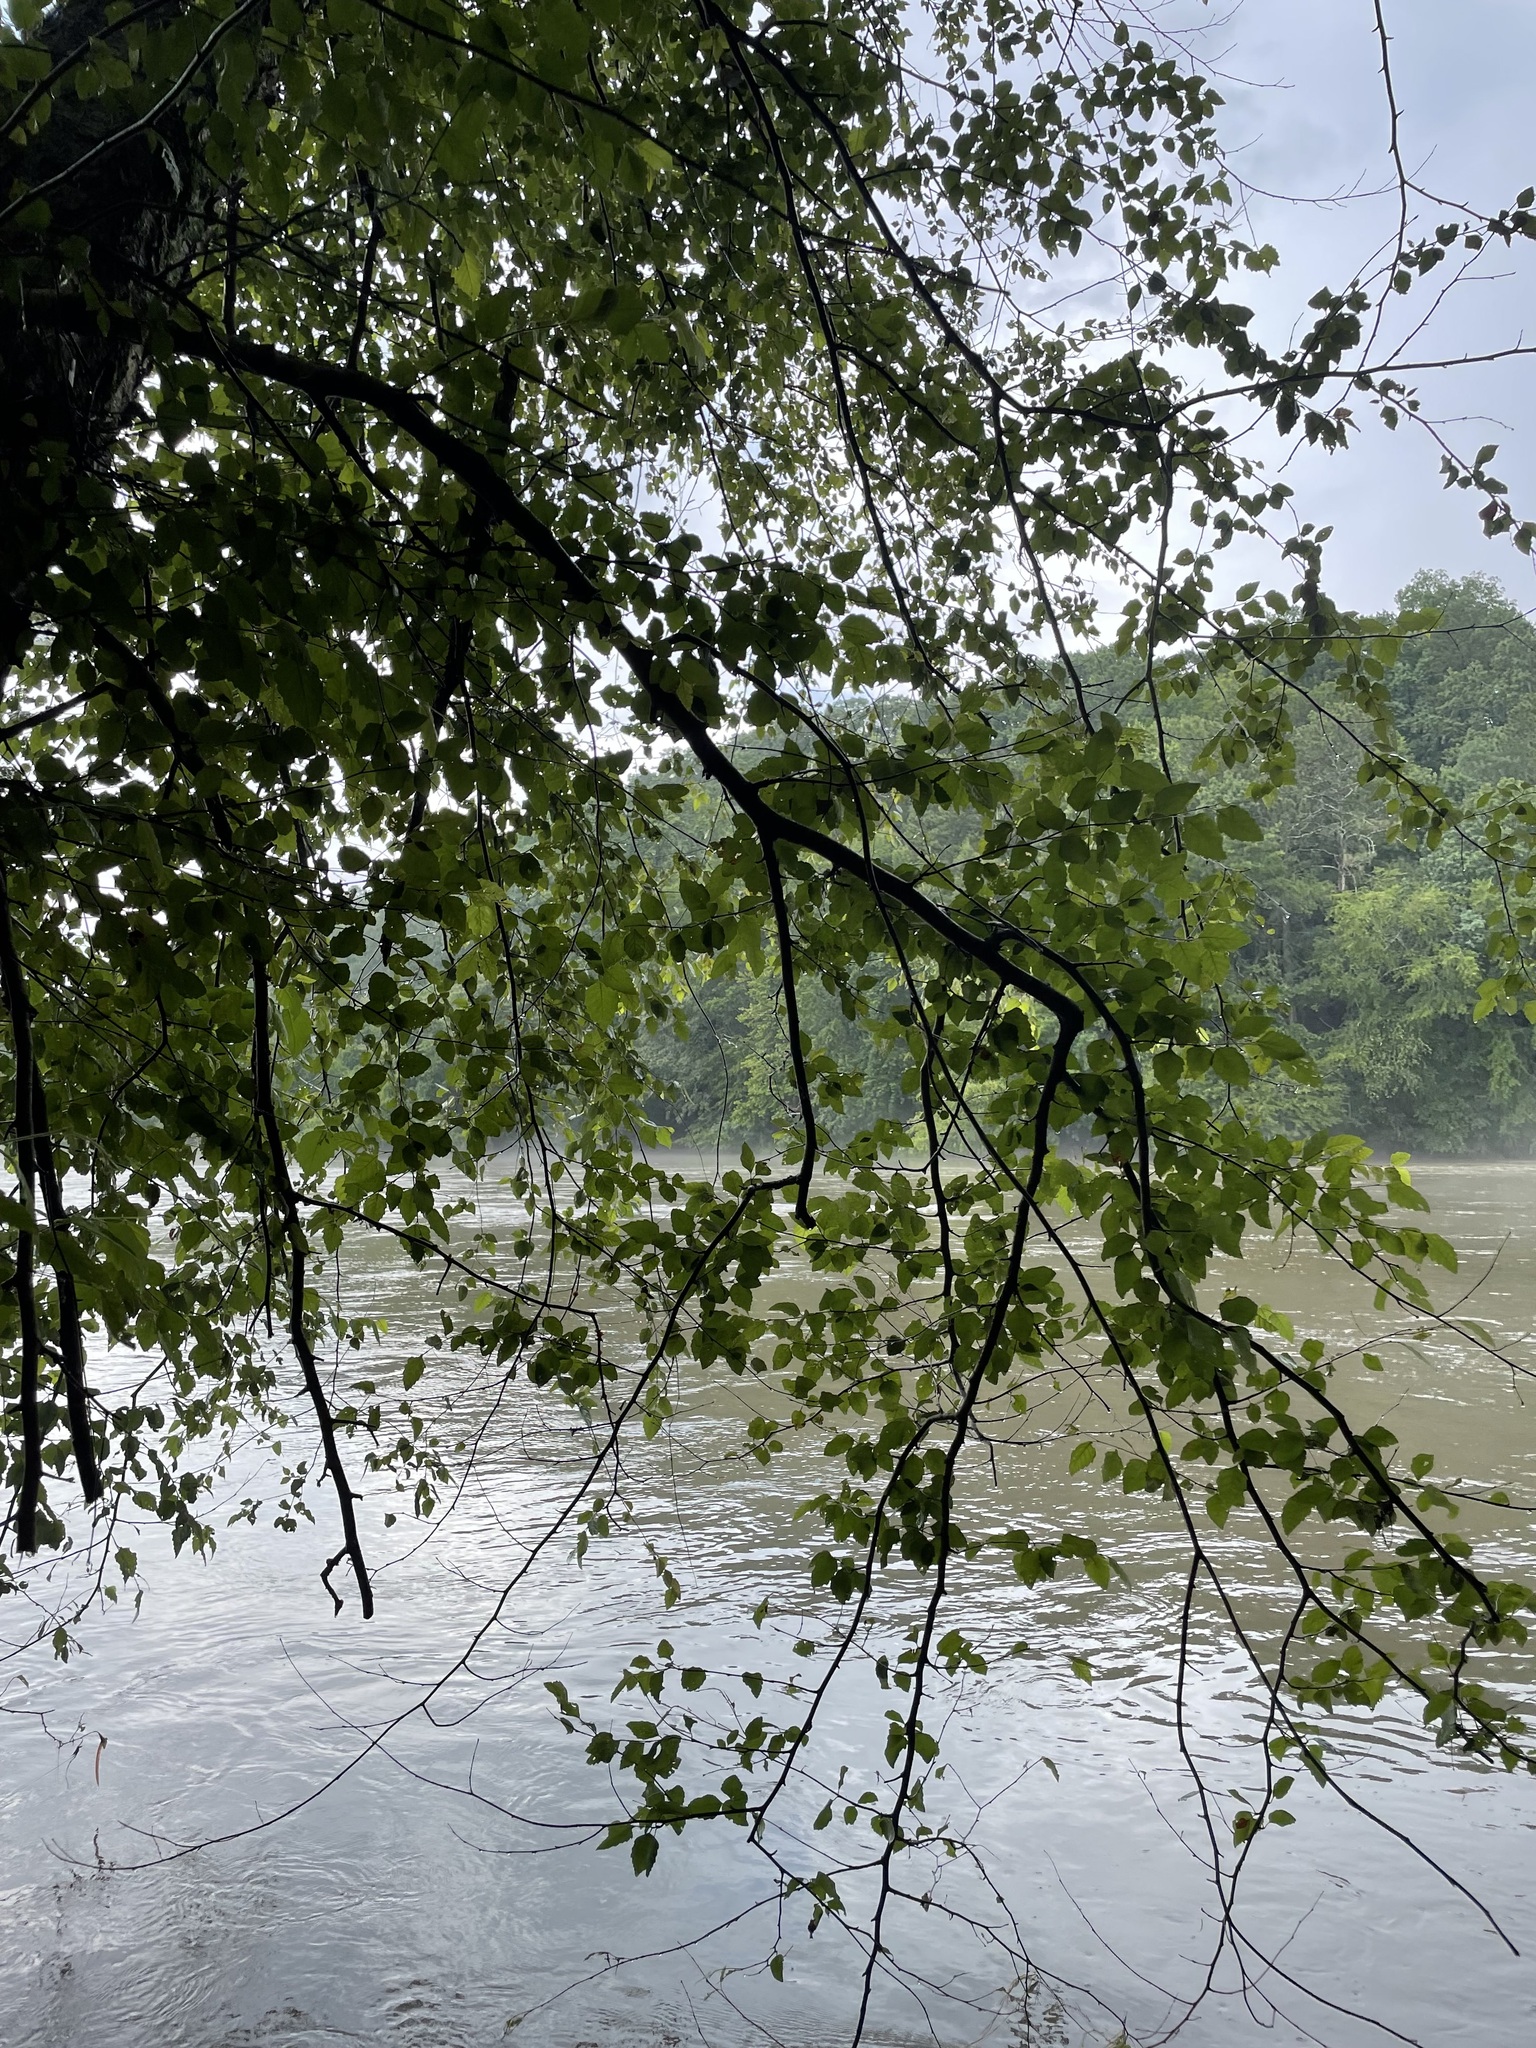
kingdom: Plantae
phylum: Tracheophyta
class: Magnoliopsida
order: Fagales
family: Betulaceae
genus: Betula
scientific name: Betula nigra
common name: Black birch
